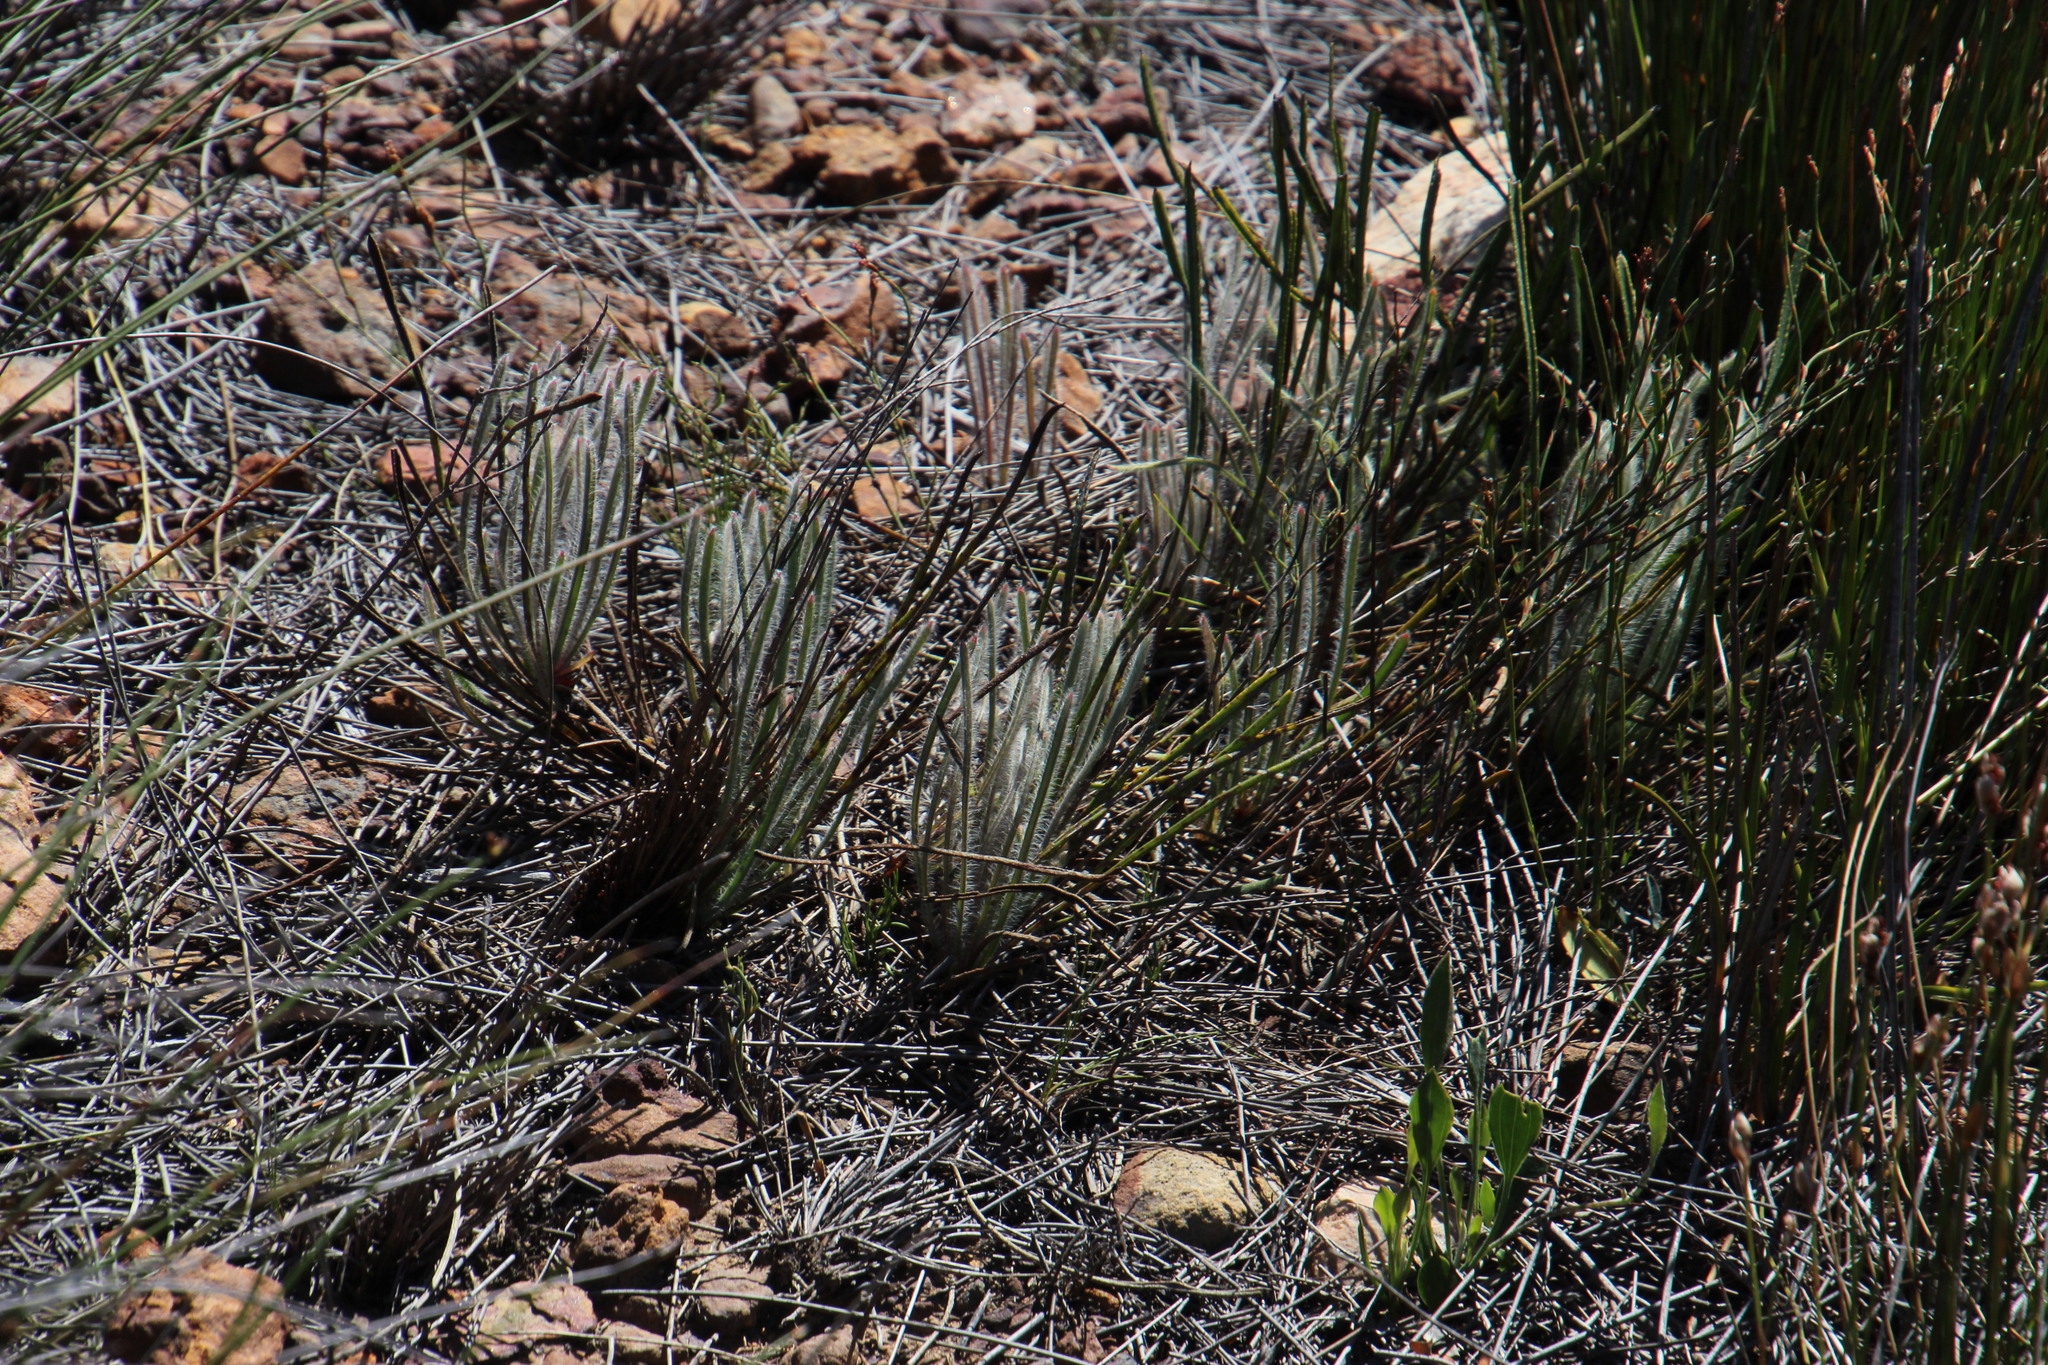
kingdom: Plantae
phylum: Tracheophyta
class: Magnoliopsida
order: Proteales
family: Proteaceae
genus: Protea
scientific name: Protea scorzonerifolia
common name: Channel-leaf sugarbush
